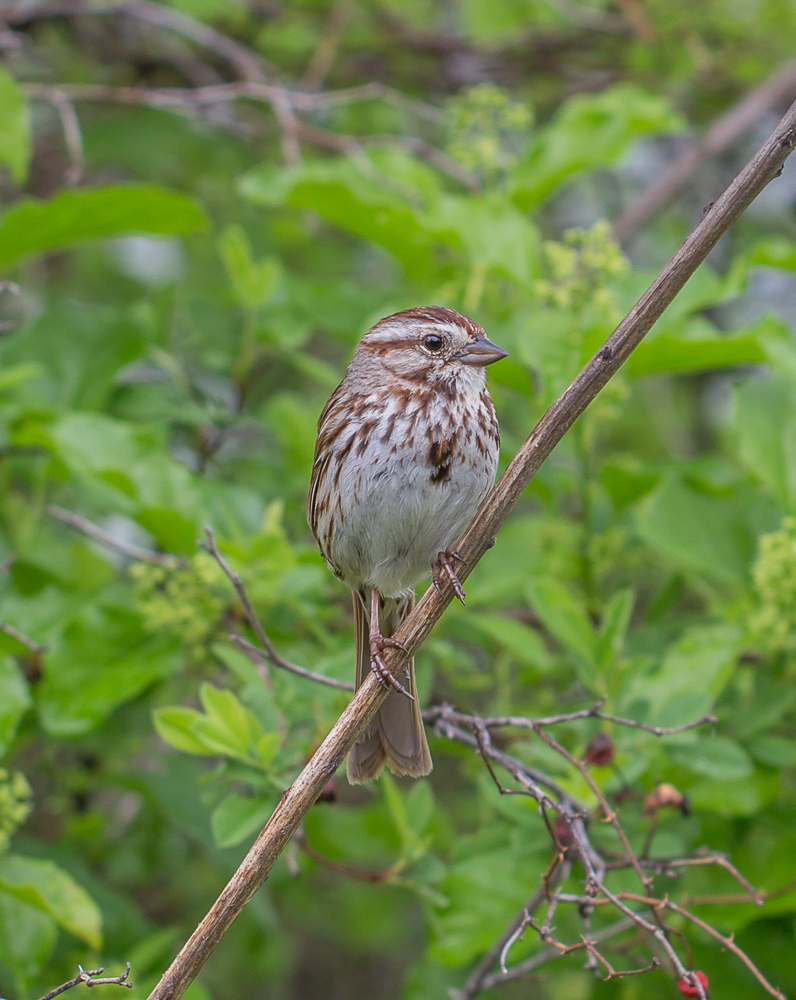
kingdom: Animalia
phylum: Chordata
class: Aves
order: Passeriformes
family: Passerellidae
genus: Melospiza
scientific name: Melospiza melodia
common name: Song sparrow
